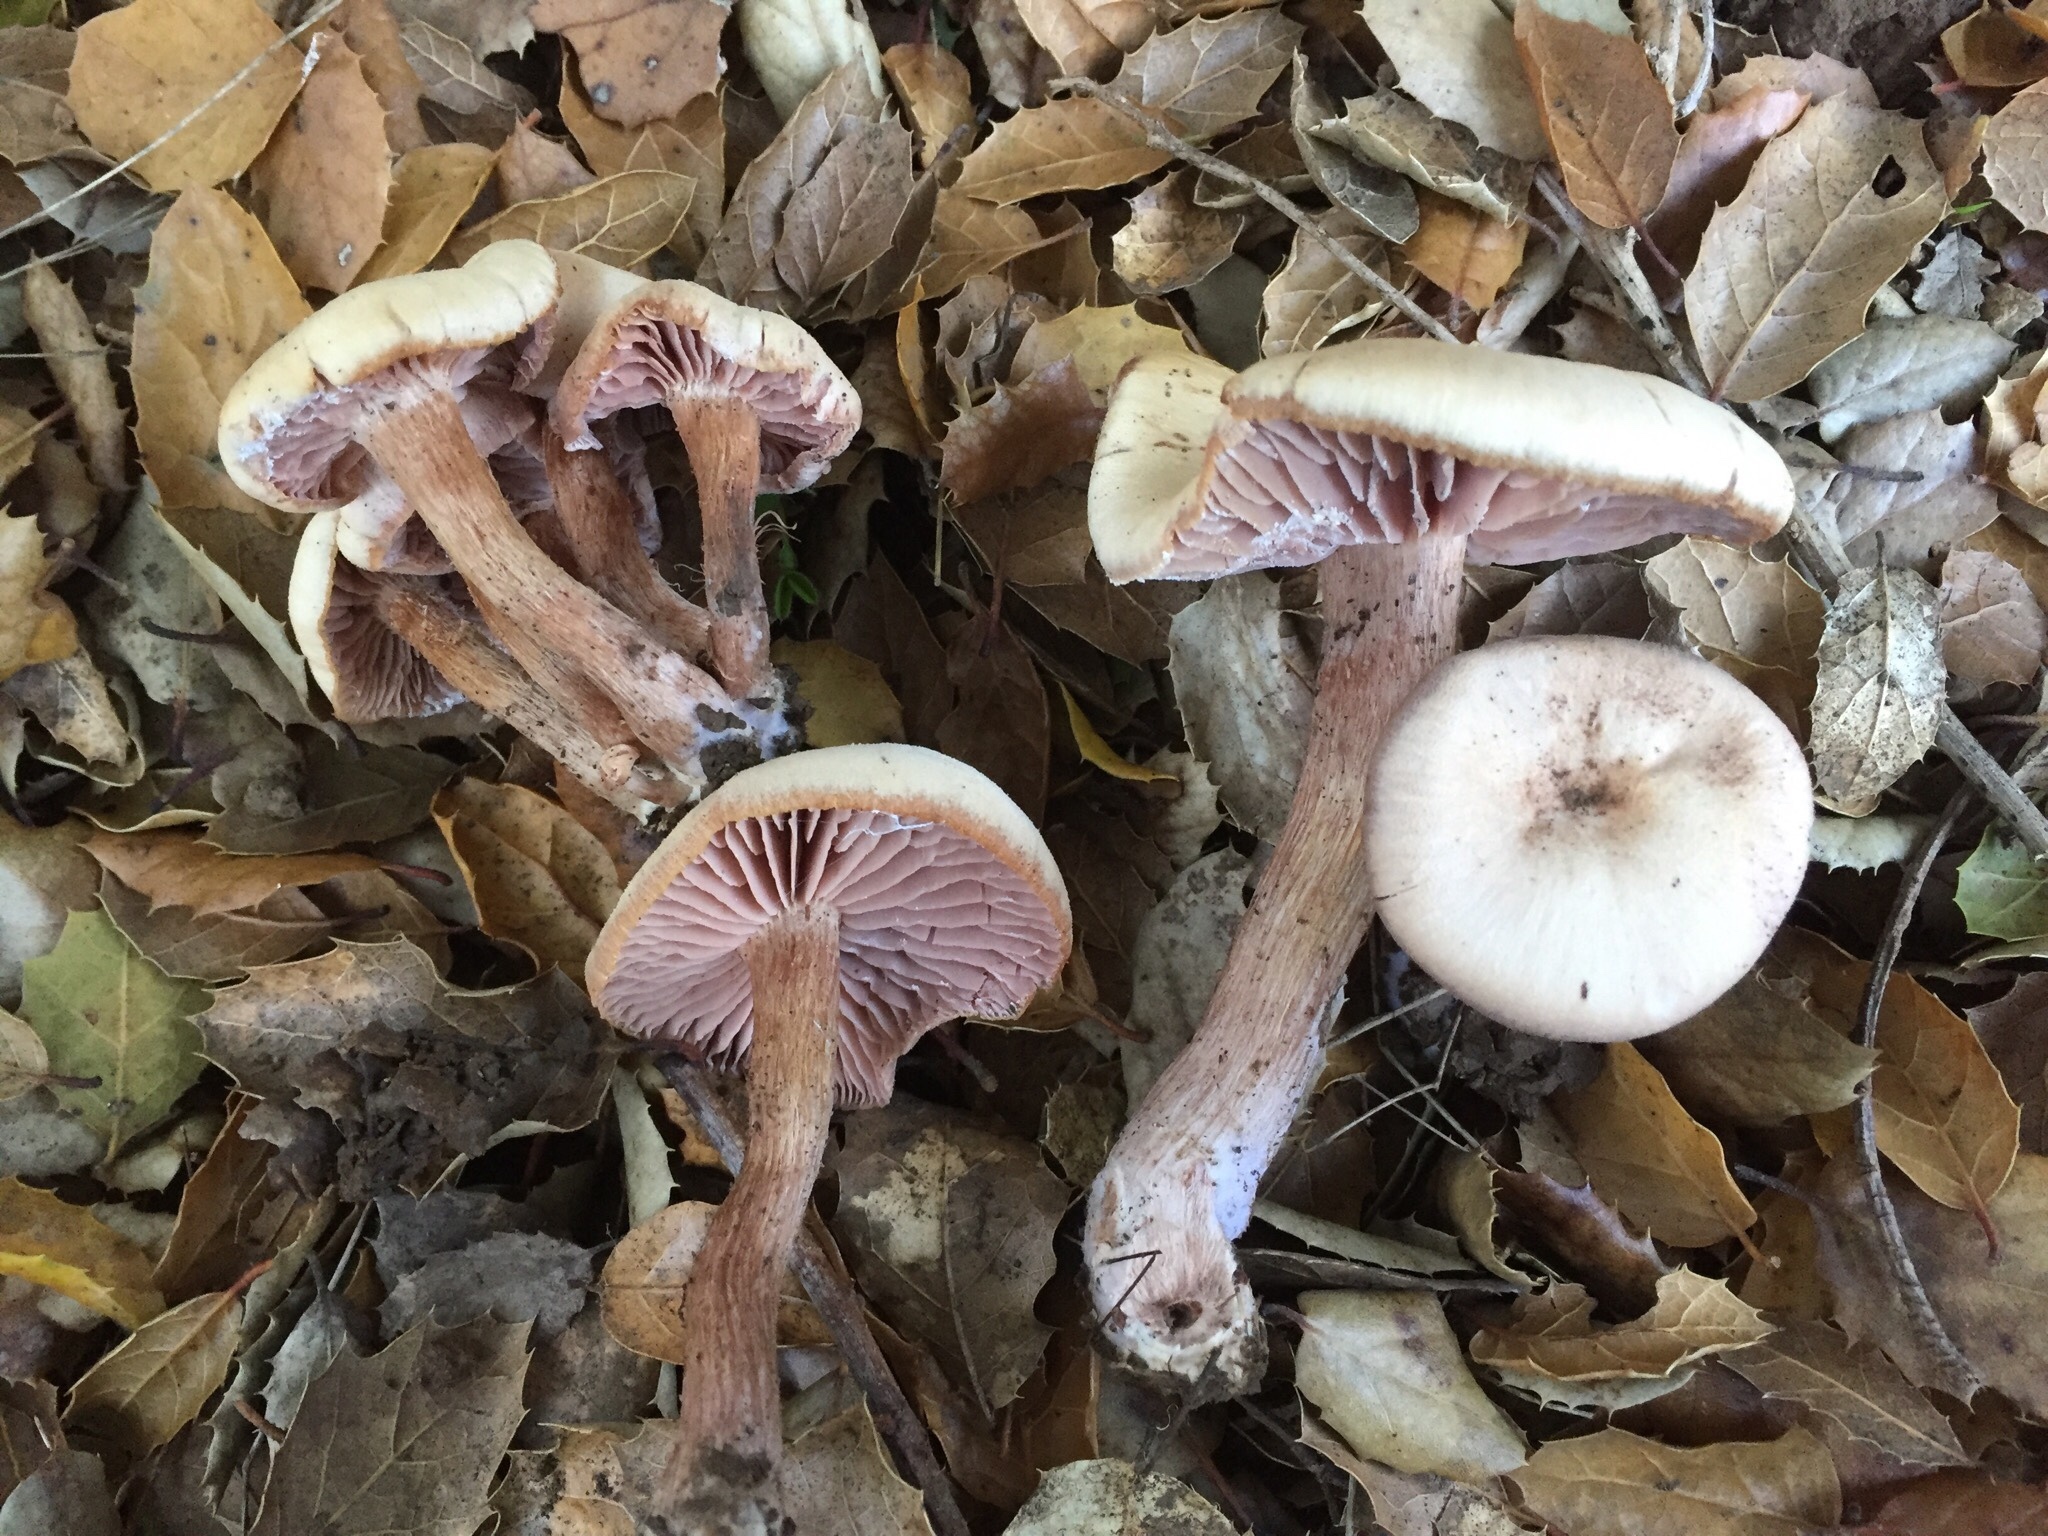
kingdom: Fungi
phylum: Basidiomycota
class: Agaricomycetes
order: Agaricales
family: Hydnangiaceae
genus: Laccaria
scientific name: Laccaria amethysteo-occidentalis
